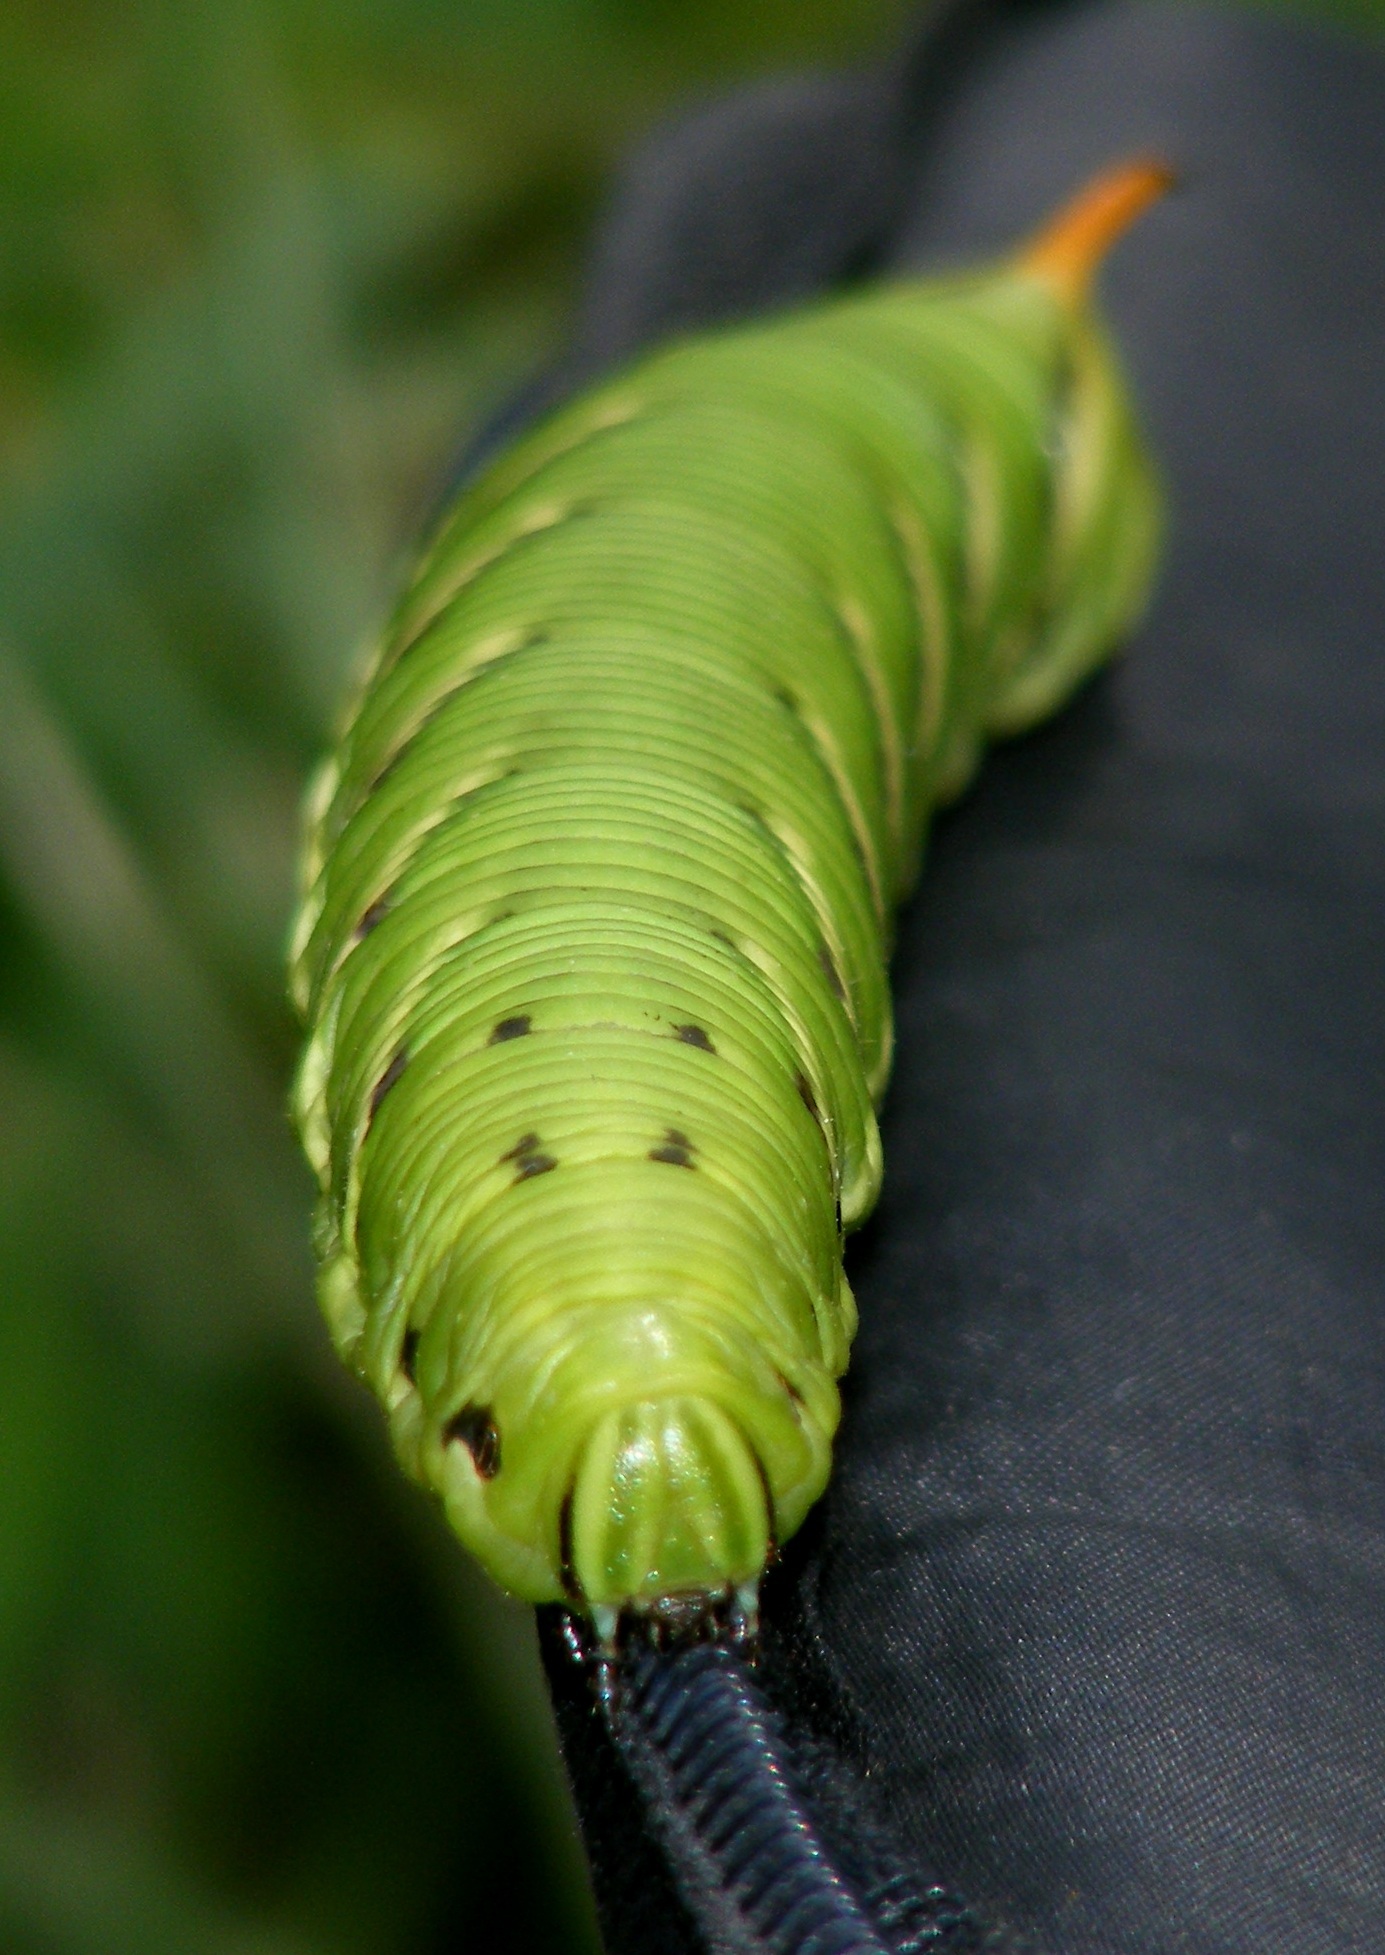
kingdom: Animalia
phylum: Arthropoda
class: Insecta
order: Lepidoptera
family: Sphingidae
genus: Agrius
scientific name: Agrius convolvuli
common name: Convolvulus hawkmoth
